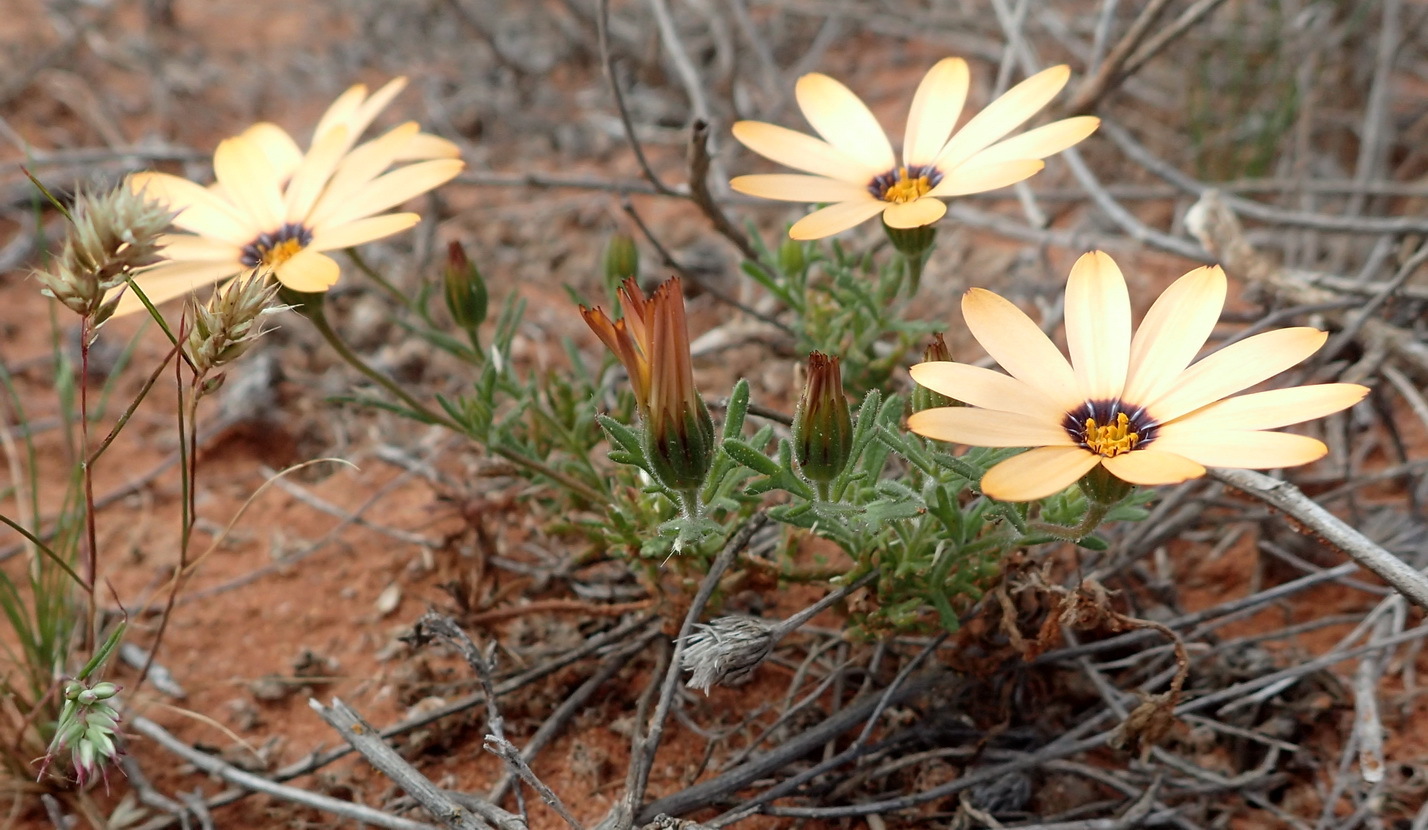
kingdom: Plantae
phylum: Tracheophyta
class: Magnoliopsida
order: Asterales
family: Asteraceae
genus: Dimorphotheca
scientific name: Dimorphotheca pinnata
